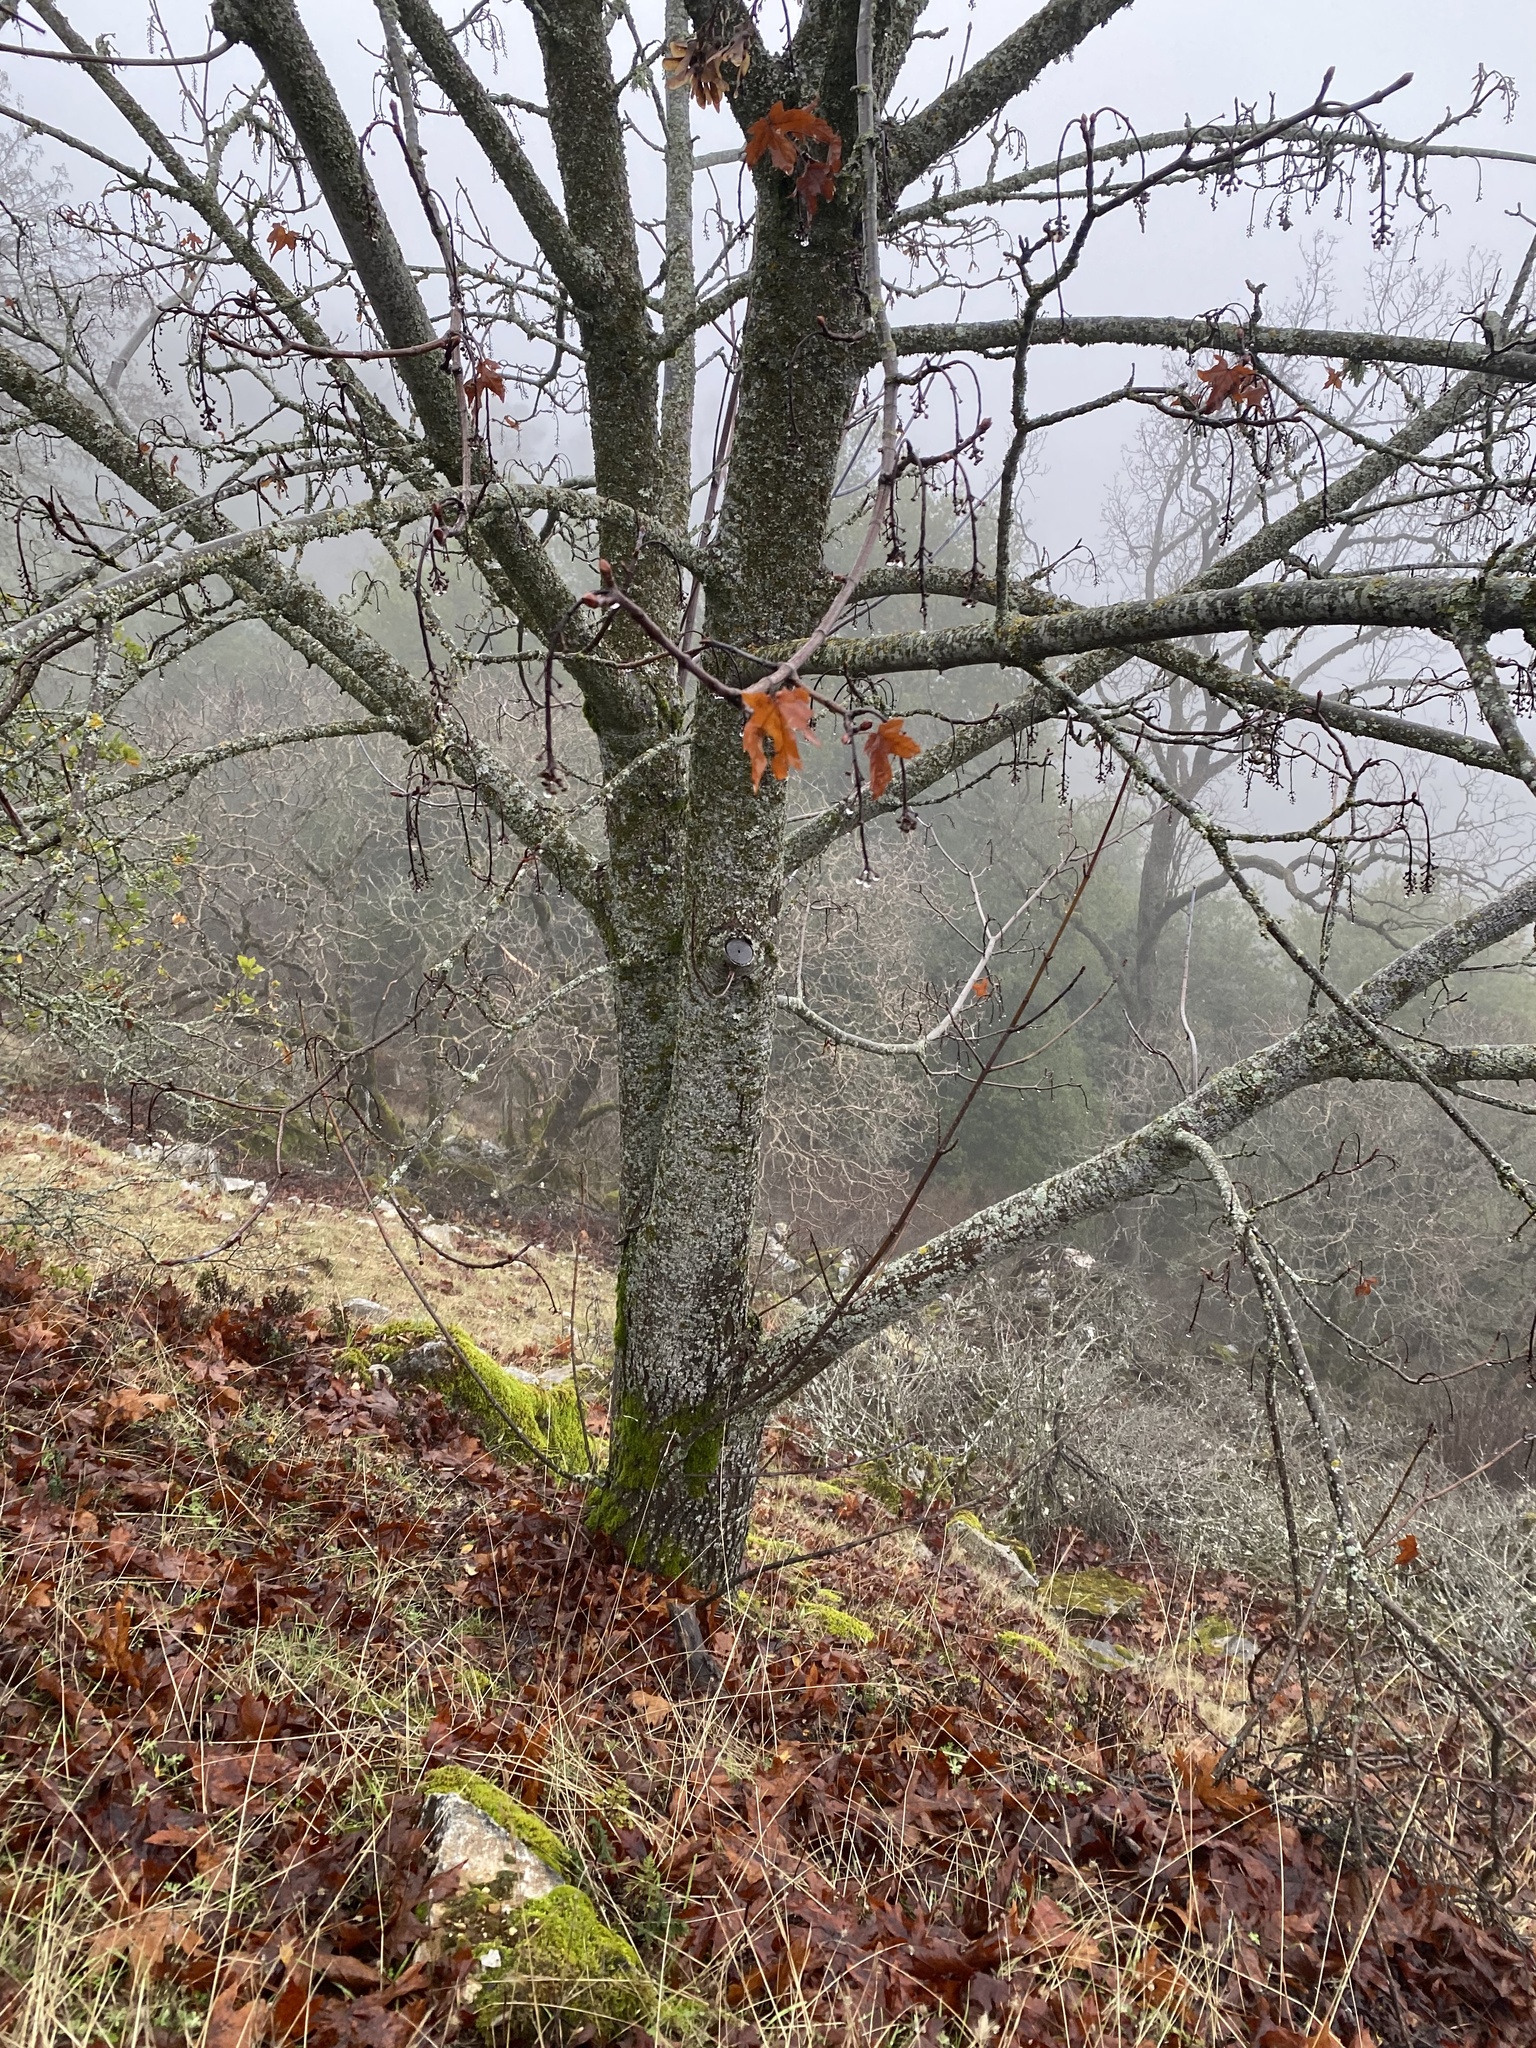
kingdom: Plantae
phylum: Tracheophyta
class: Magnoliopsida
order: Sapindales
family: Sapindaceae
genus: Acer
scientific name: Acer macrophyllum
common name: Oregon maple
